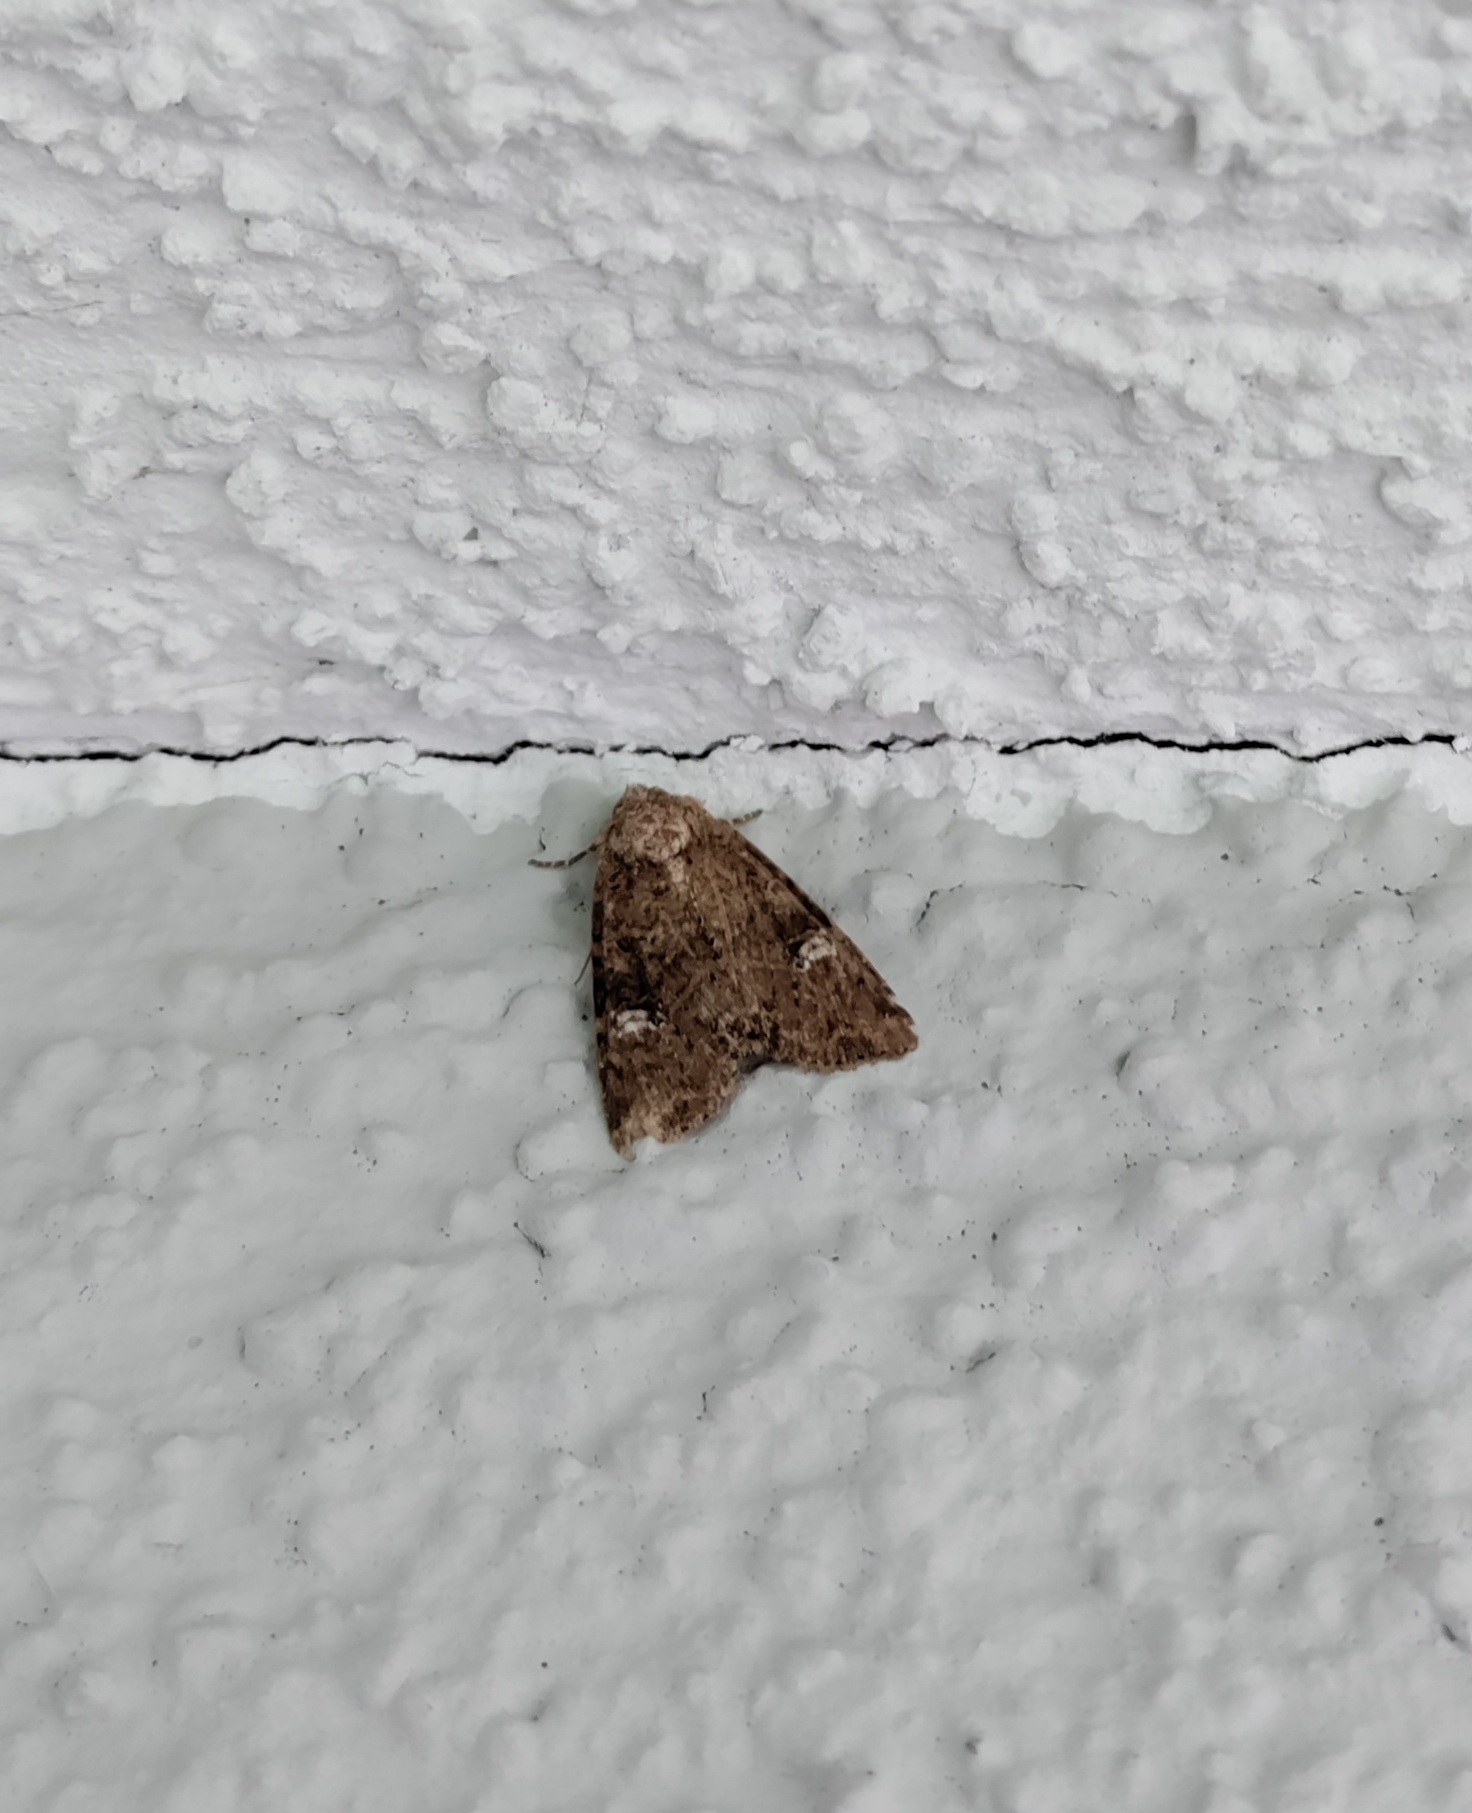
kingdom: Animalia
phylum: Arthropoda
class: Insecta
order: Lepidoptera
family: Noctuidae
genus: Mesapamea
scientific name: Mesapamea
